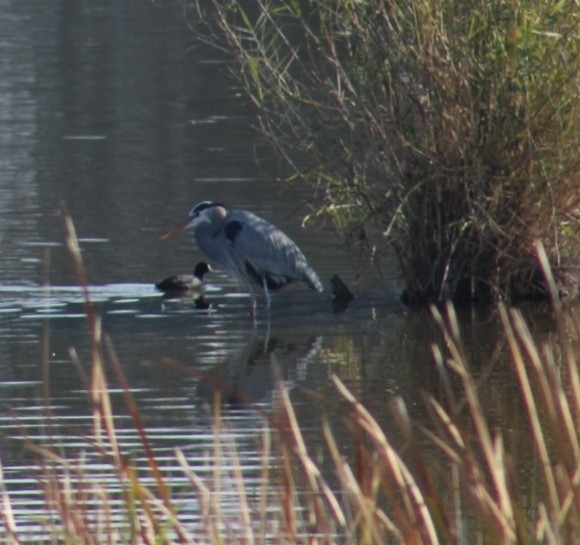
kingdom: Animalia
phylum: Chordata
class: Aves
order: Pelecaniformes
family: Ardeidae
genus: Ardea
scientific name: Ardea herodias
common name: Great blue heron
